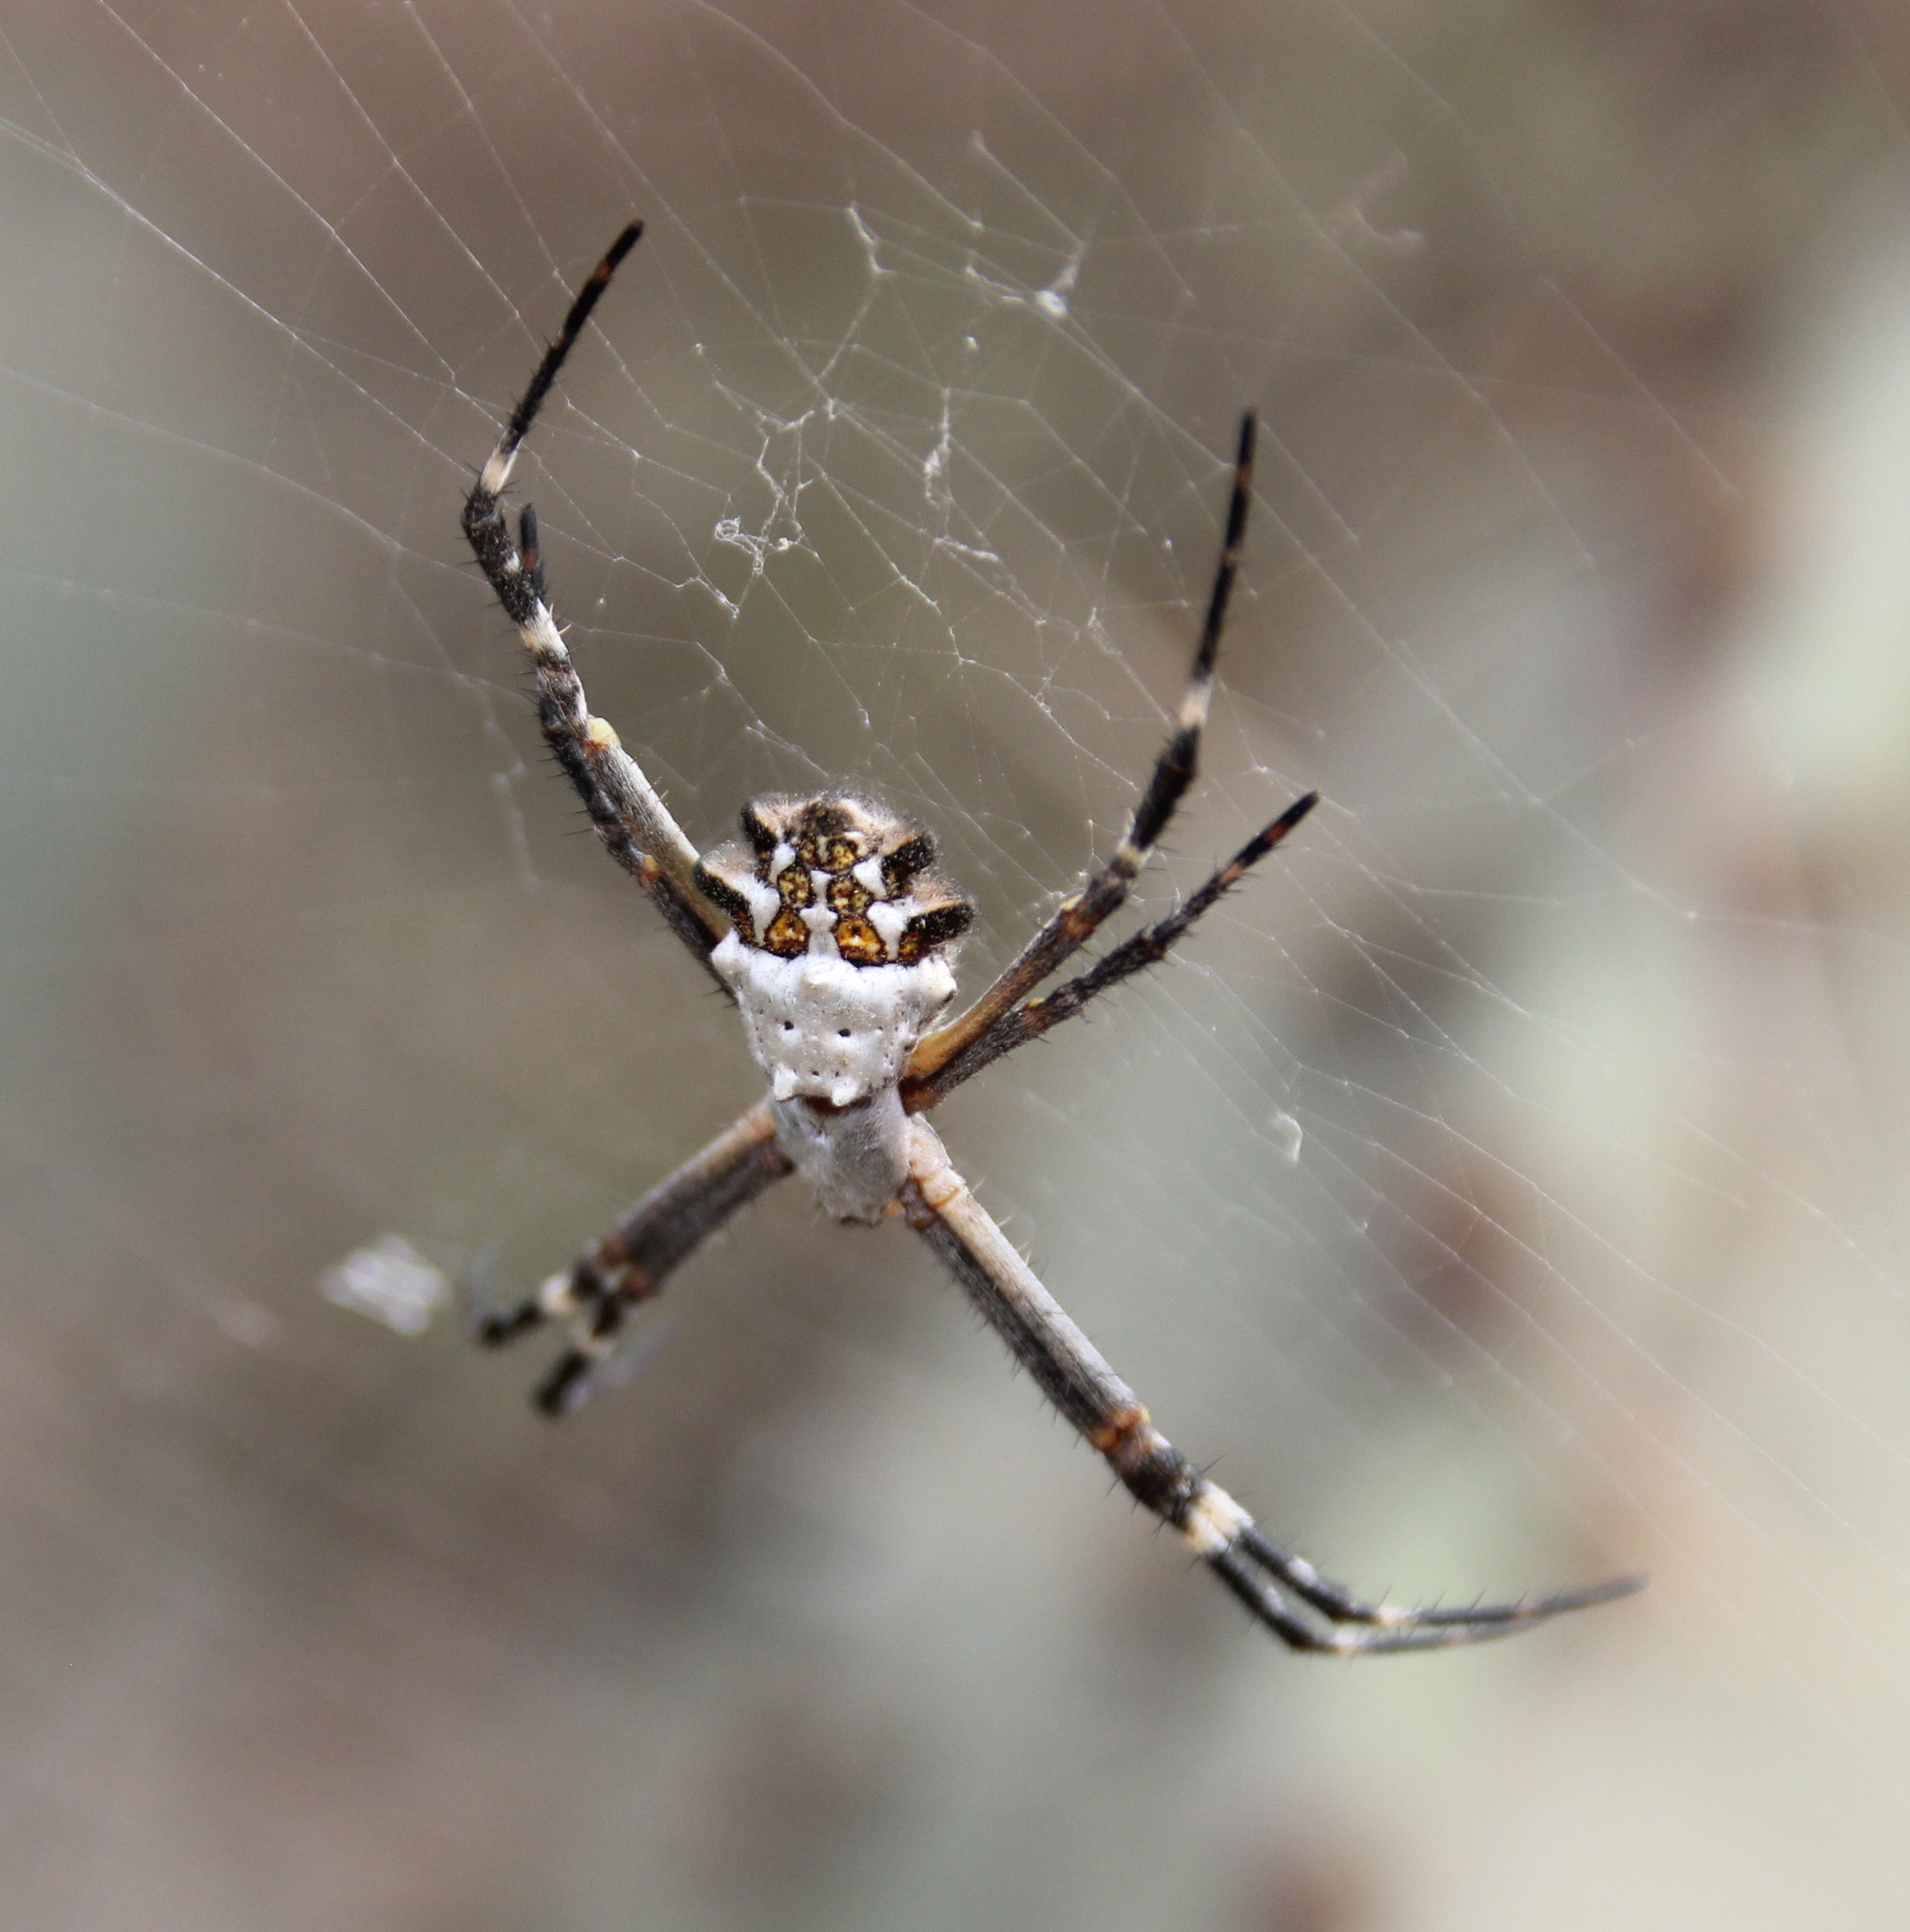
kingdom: Animalia
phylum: Arthropoda
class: Arachnida
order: Araneae
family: Araneidae
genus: Argiope
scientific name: Argiope argentata
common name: Orb weavers
